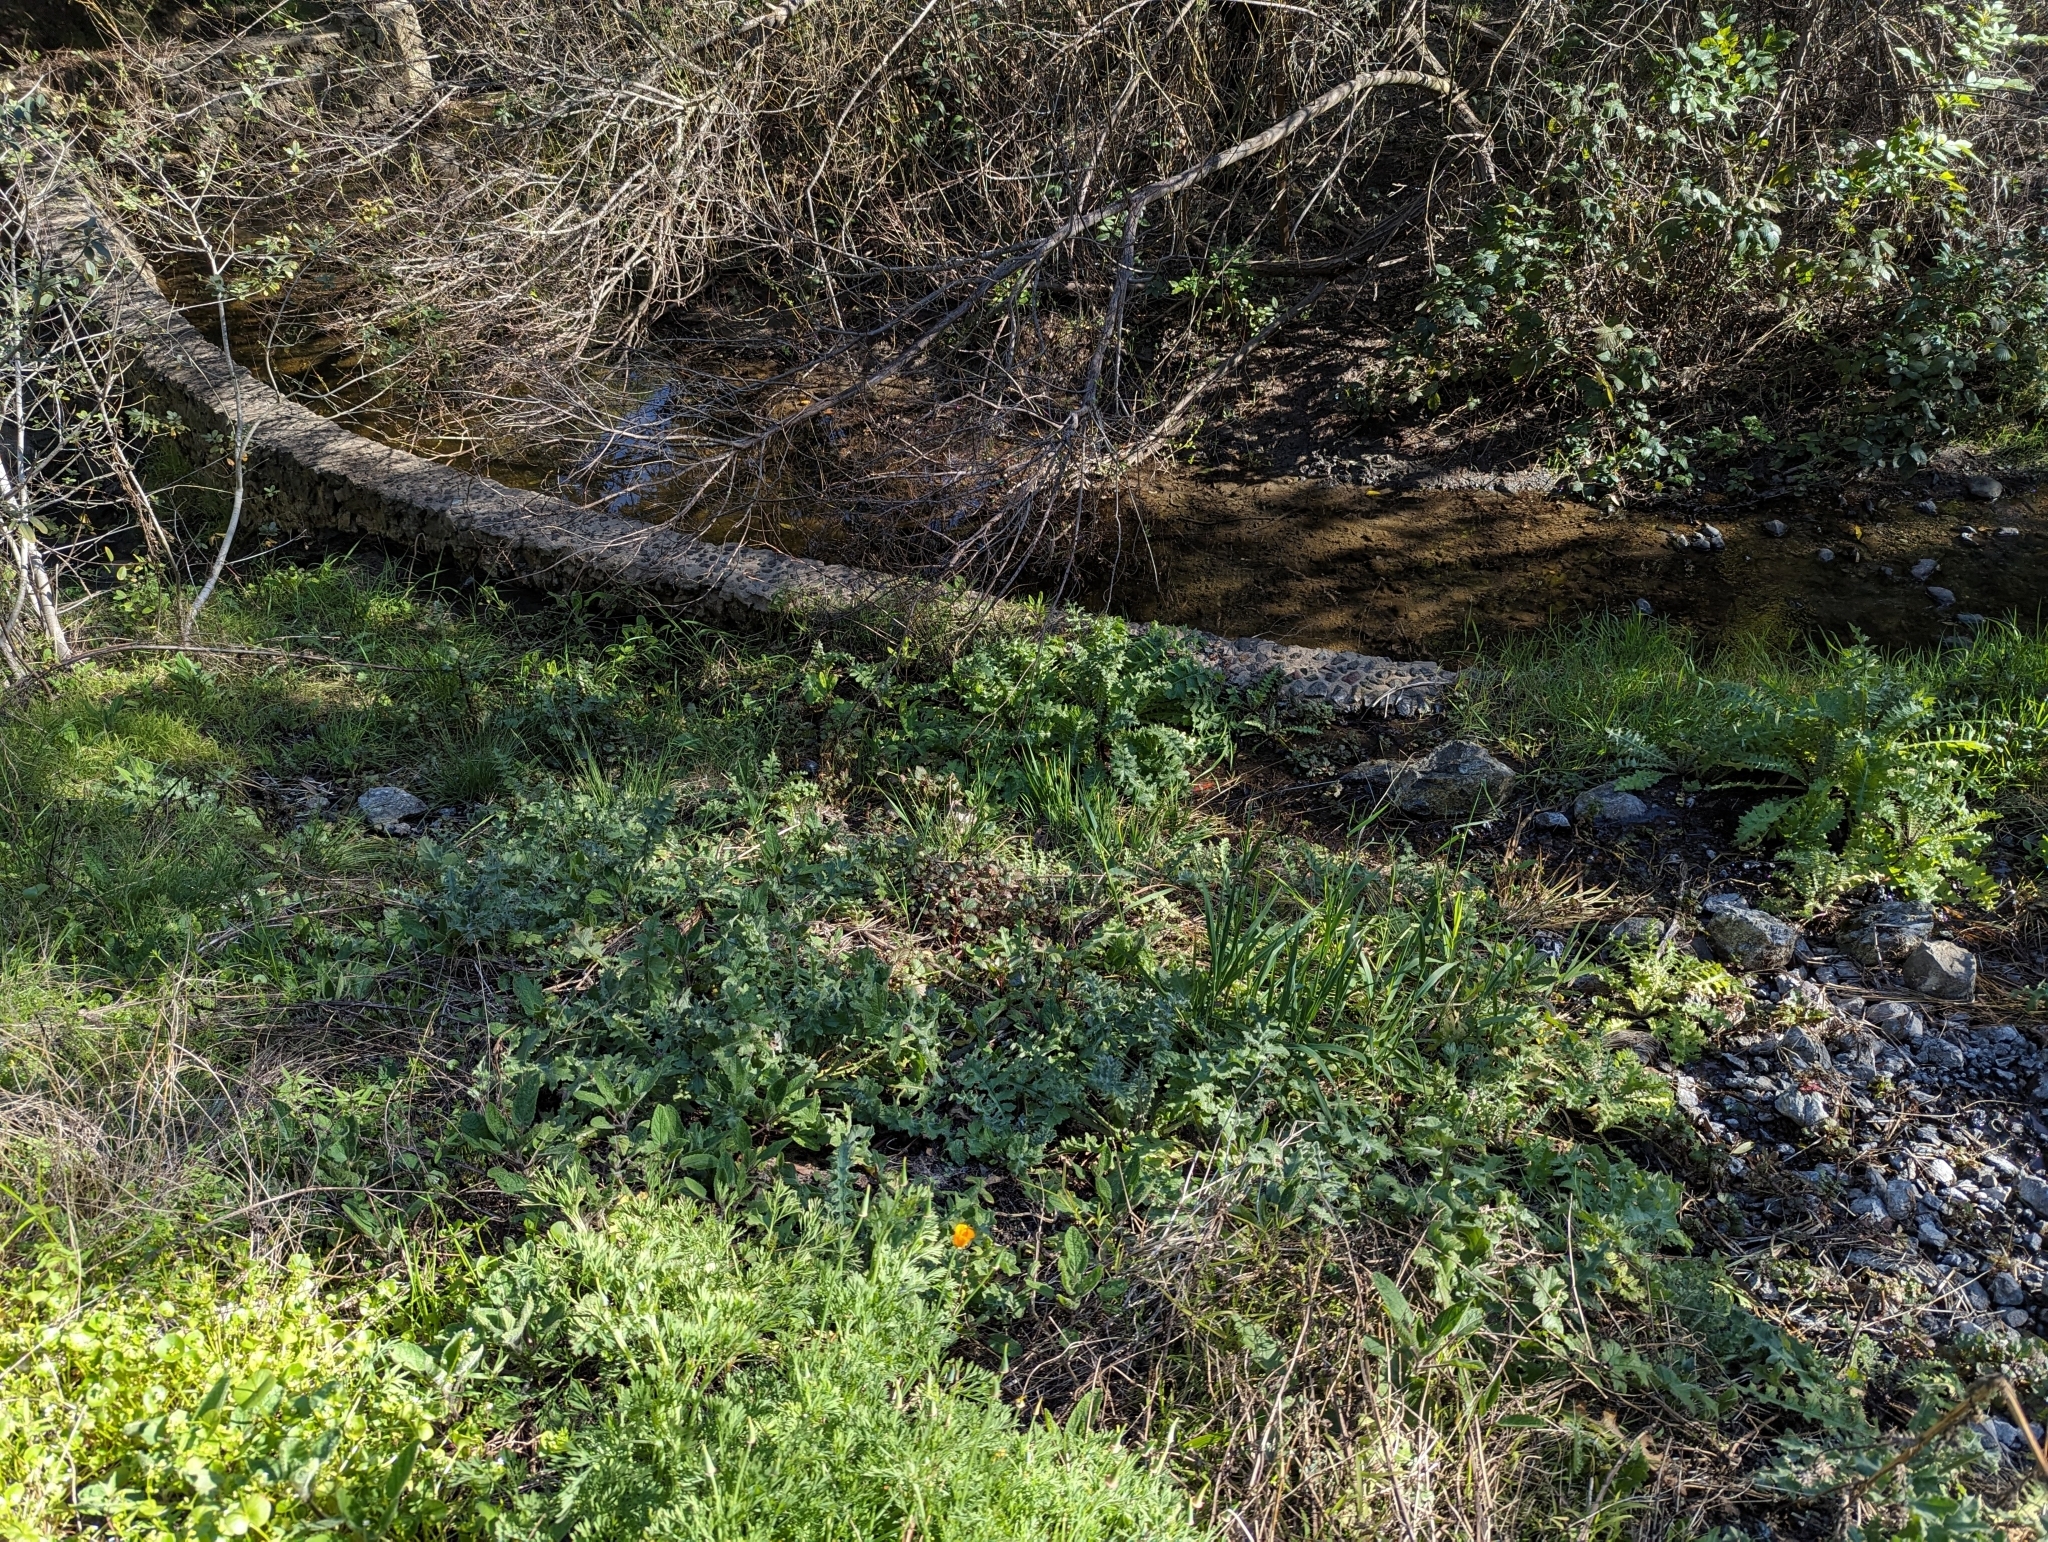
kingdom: Plantae
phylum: Tracheophyta
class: Magnoliopsida
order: Asterales
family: Asteraceae
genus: Cirsium
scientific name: Cirsium fontinale
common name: Fountain thistle
